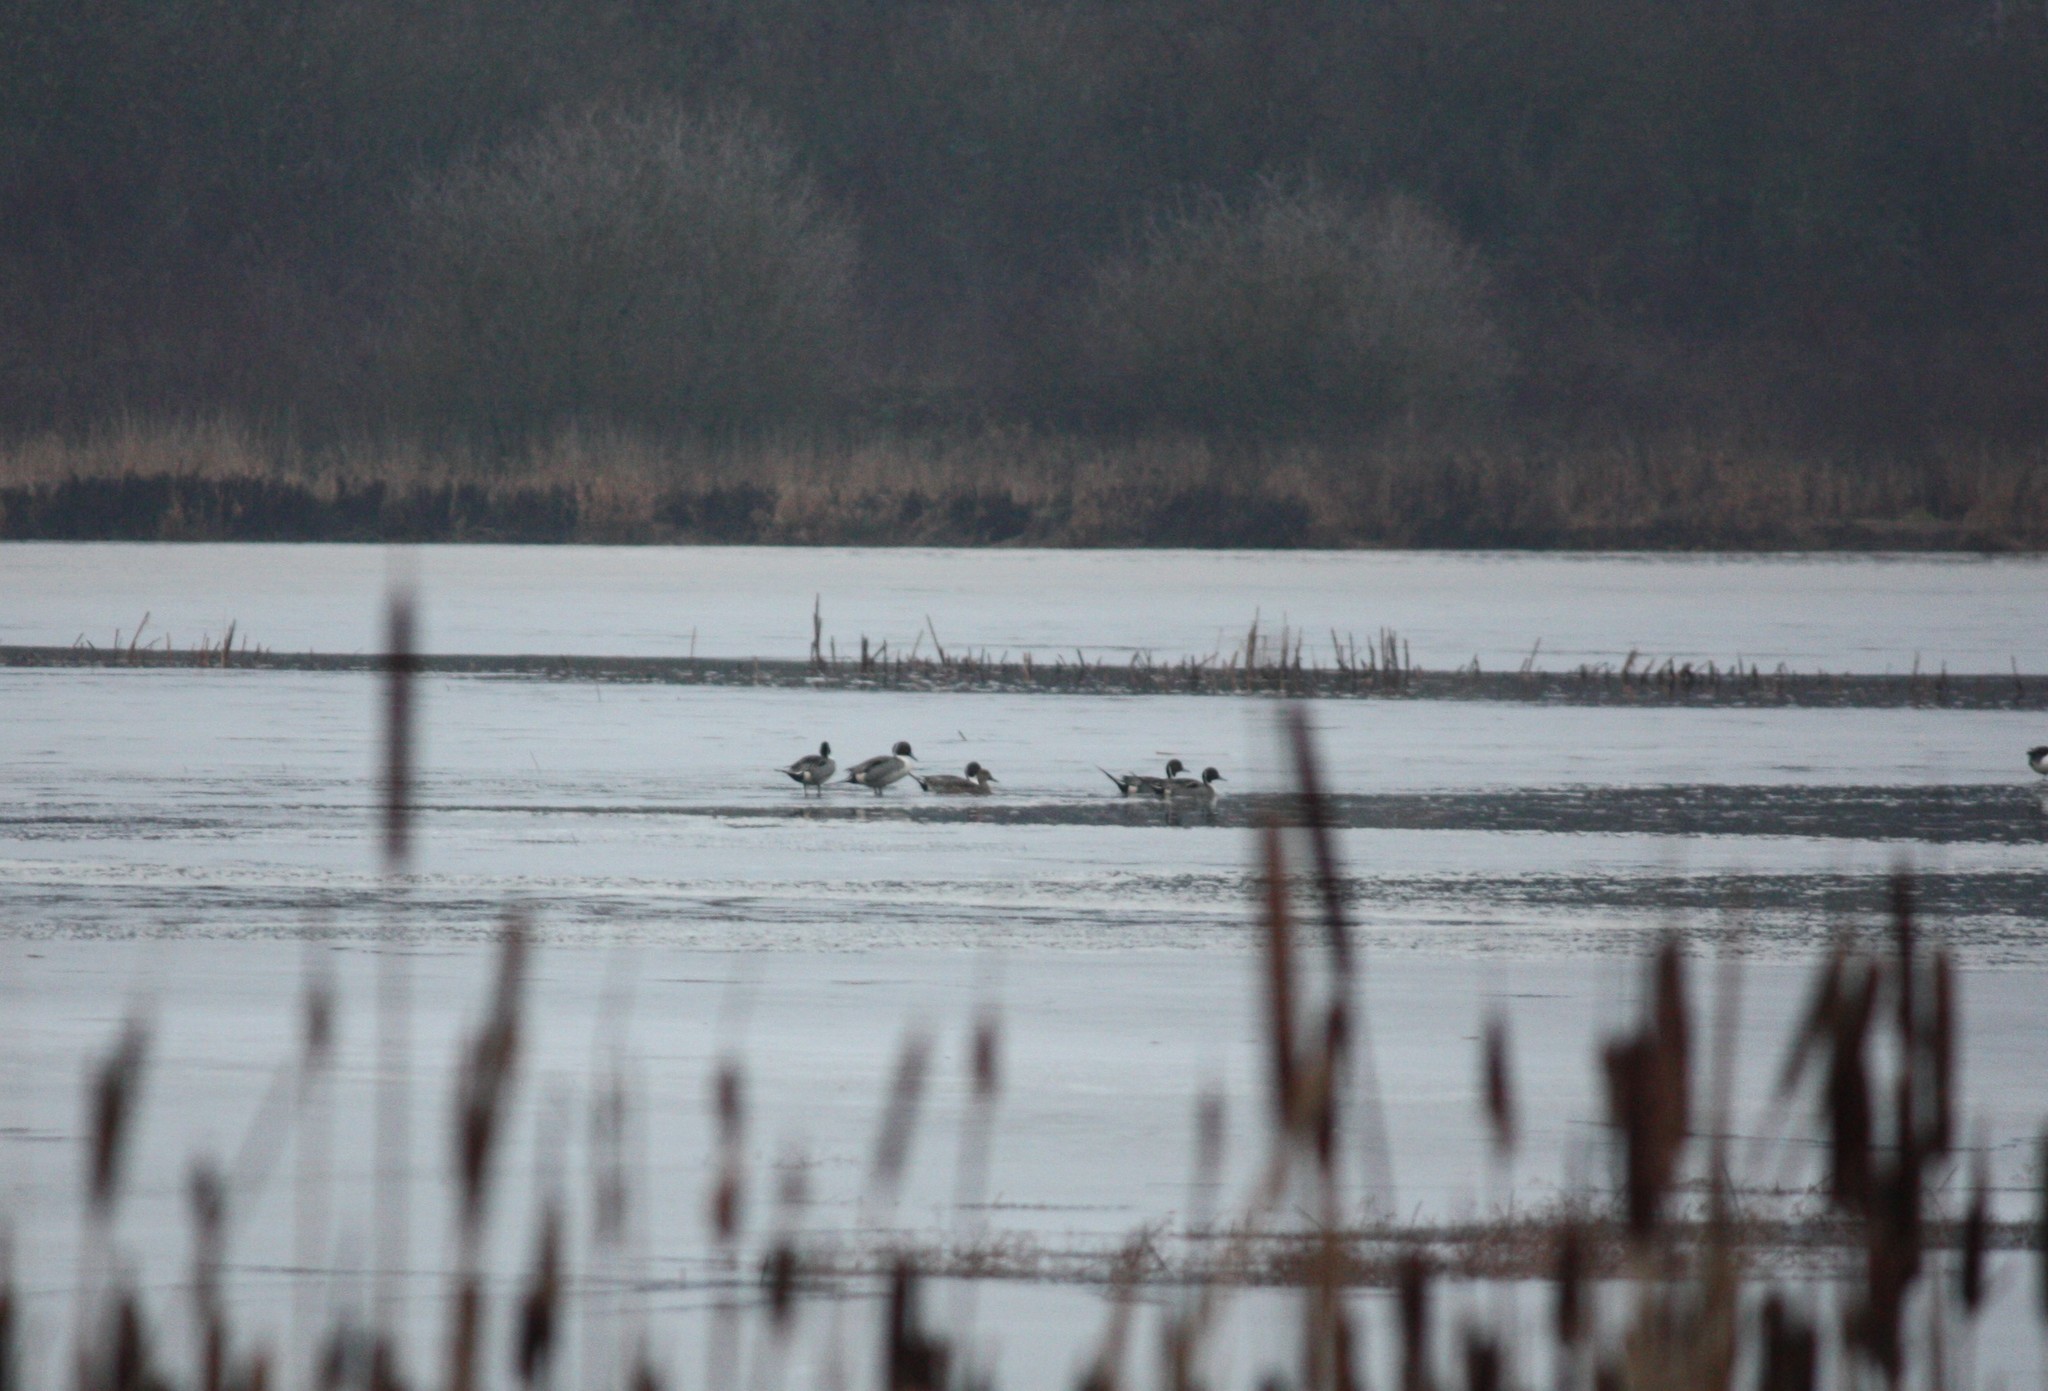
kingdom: Animalia
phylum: Chordata
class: Aves
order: Anseriformes
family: Anatidae
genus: Anas
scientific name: Anas acuta
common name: Northern pintail
